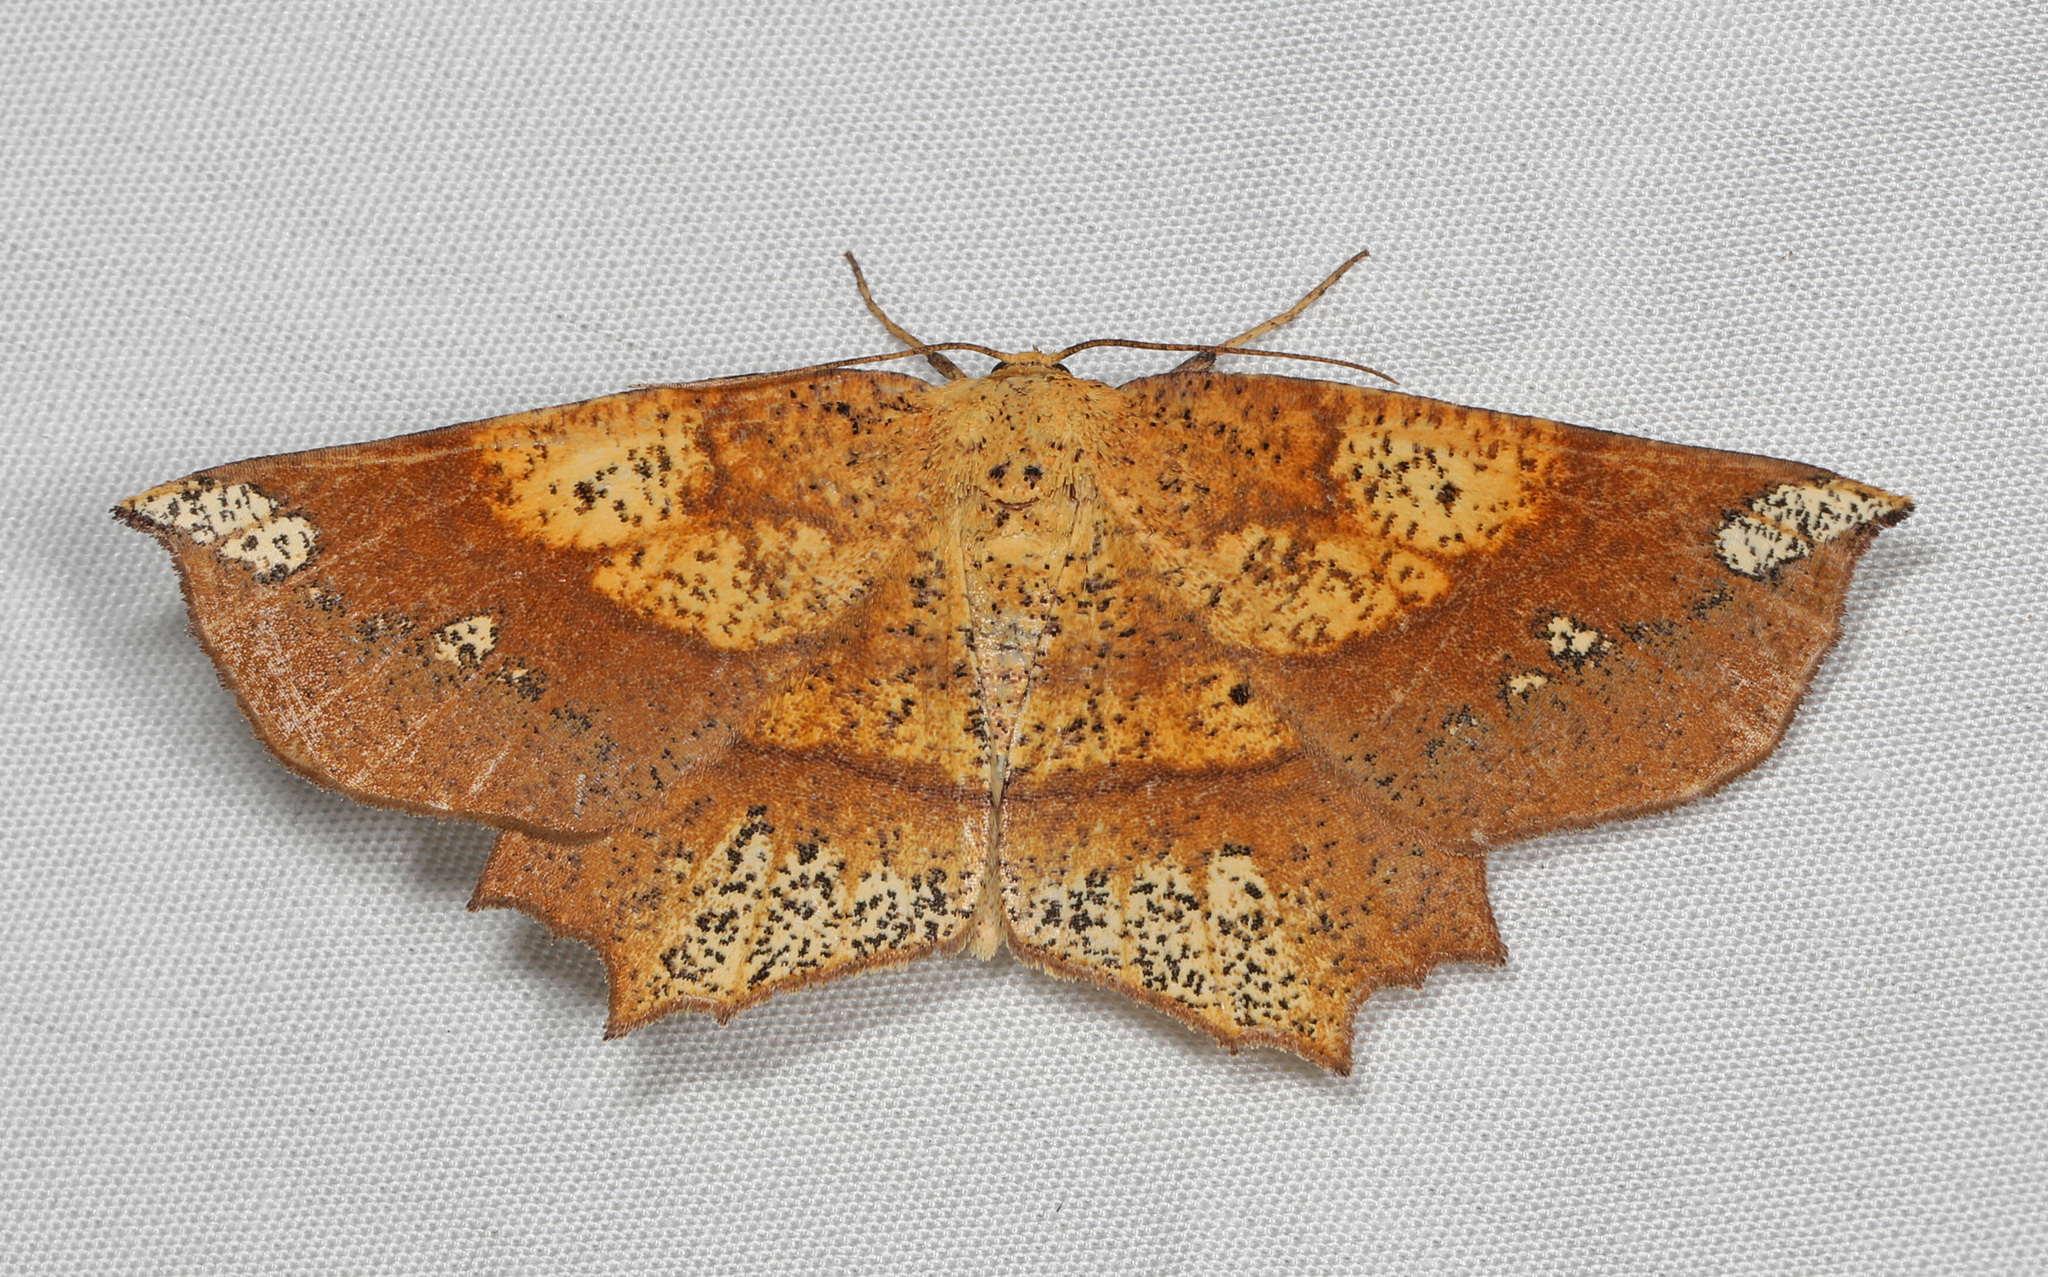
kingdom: Animalia
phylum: Arthropoda
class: Insecta
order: Lepidoptera
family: Geometridae
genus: Euchlaena
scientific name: Euchlaena amoenaria
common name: Deep yellow euchlaena
